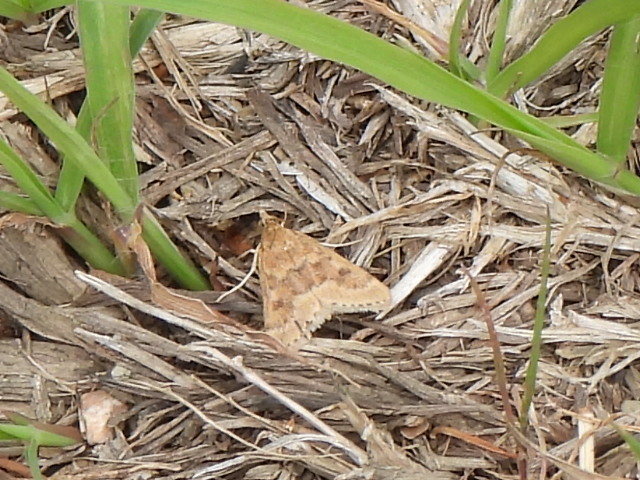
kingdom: Animalia
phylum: Arthropoda
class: Insecta
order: Lepidoptera
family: Crambidae
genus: Achyra
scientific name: Achyra rantalis
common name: Garden webworm
